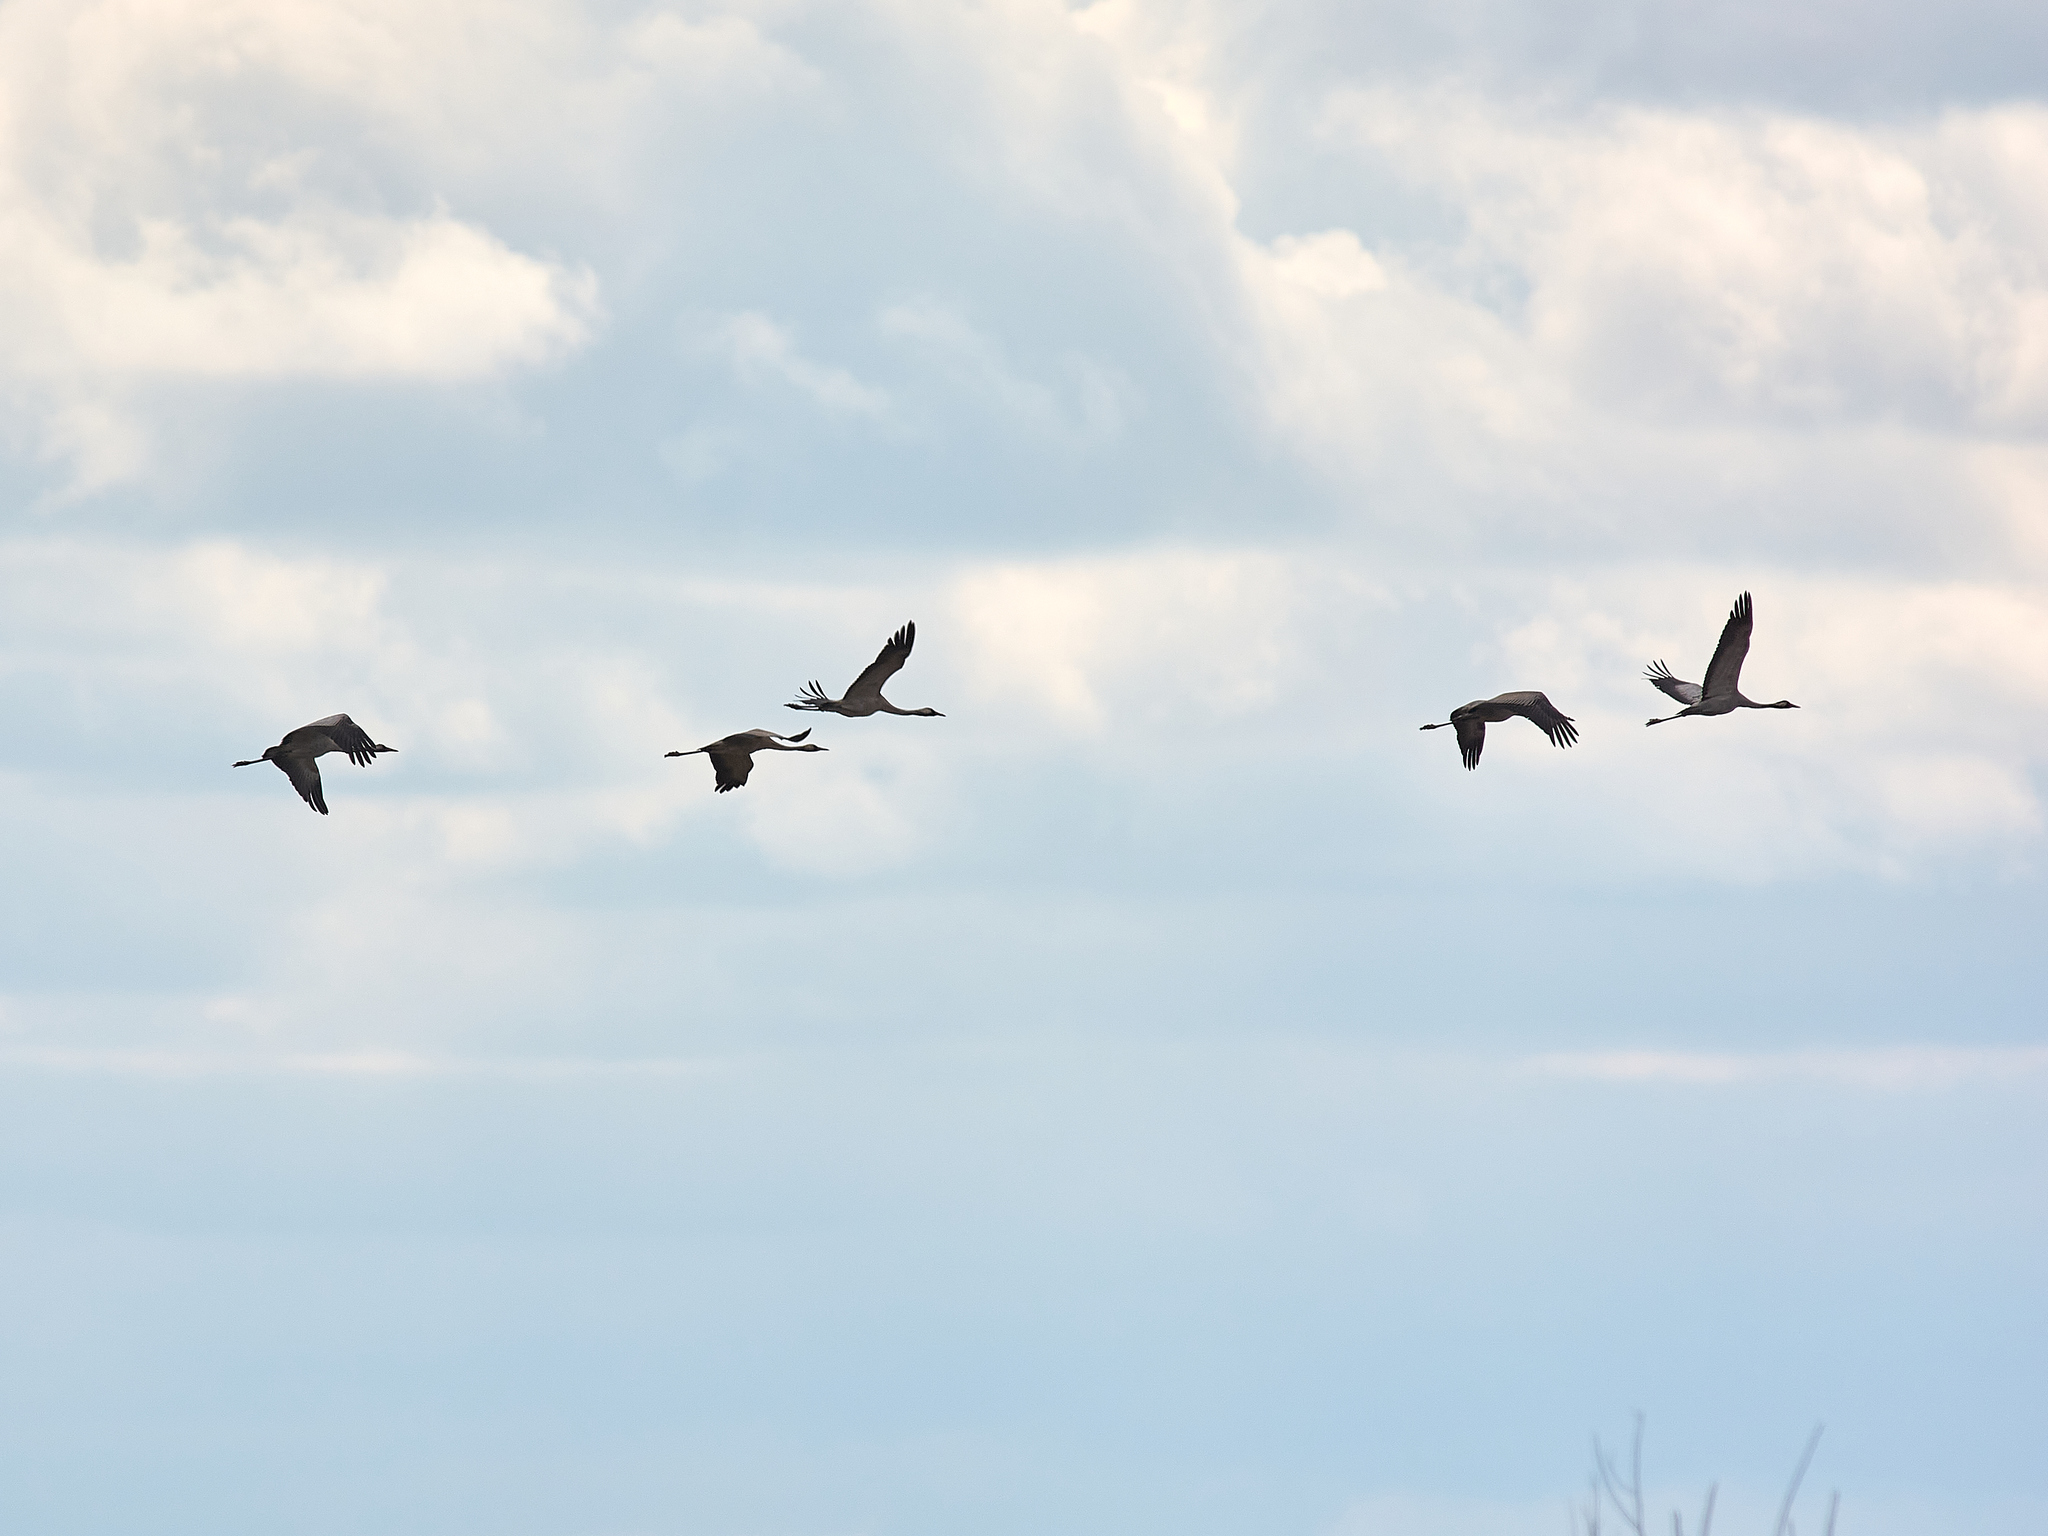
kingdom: Animalia
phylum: Chordata
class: Aves
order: Gruiformes
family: Gruidae
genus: Grus
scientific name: Grus grus
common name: Common crane
